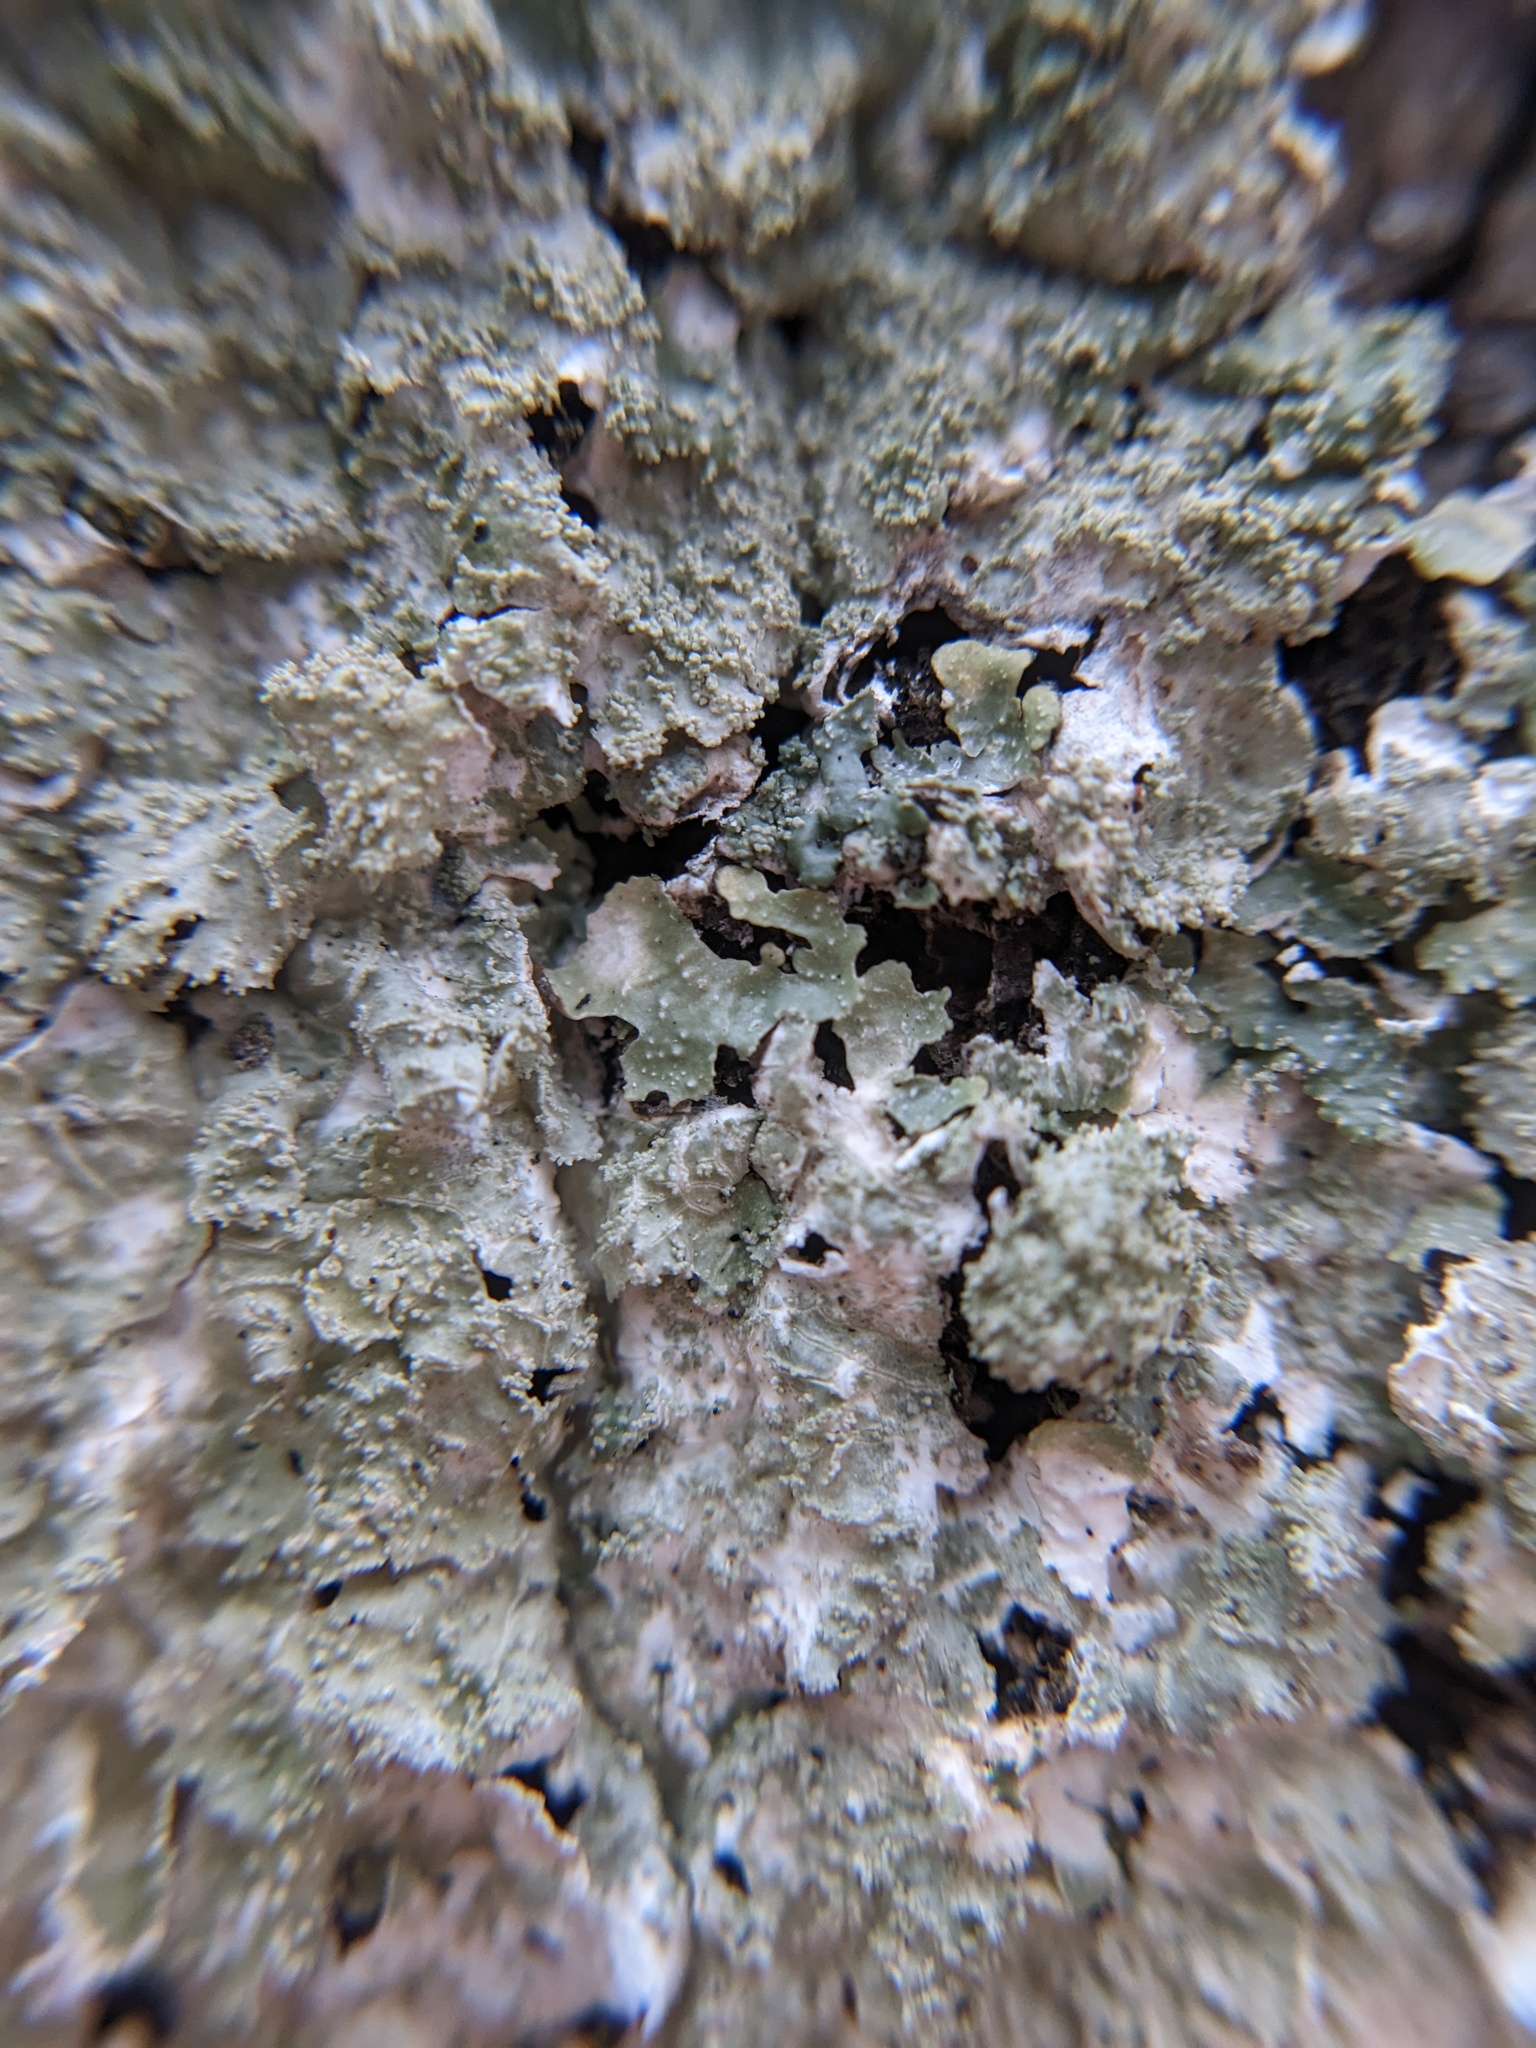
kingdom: Fungi
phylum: Ascomycota
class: Lecanoromycetes
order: Lecanorales
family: Parmeliaceae
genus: Punctelia
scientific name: Punctelia rudecta
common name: Rough speckled shield lichen
